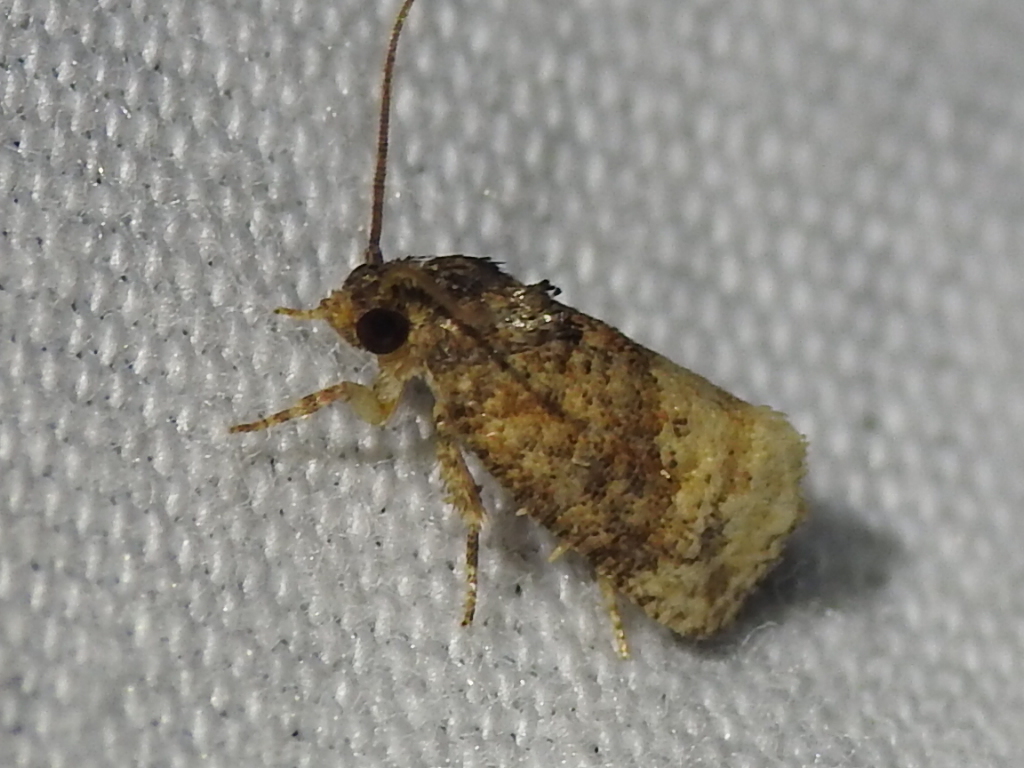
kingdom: Animalia
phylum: Arthropoda
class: Insecta
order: Lepidoptera
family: Tortricidae
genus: Ecdytolopha
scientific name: Ecdytolopha mana
